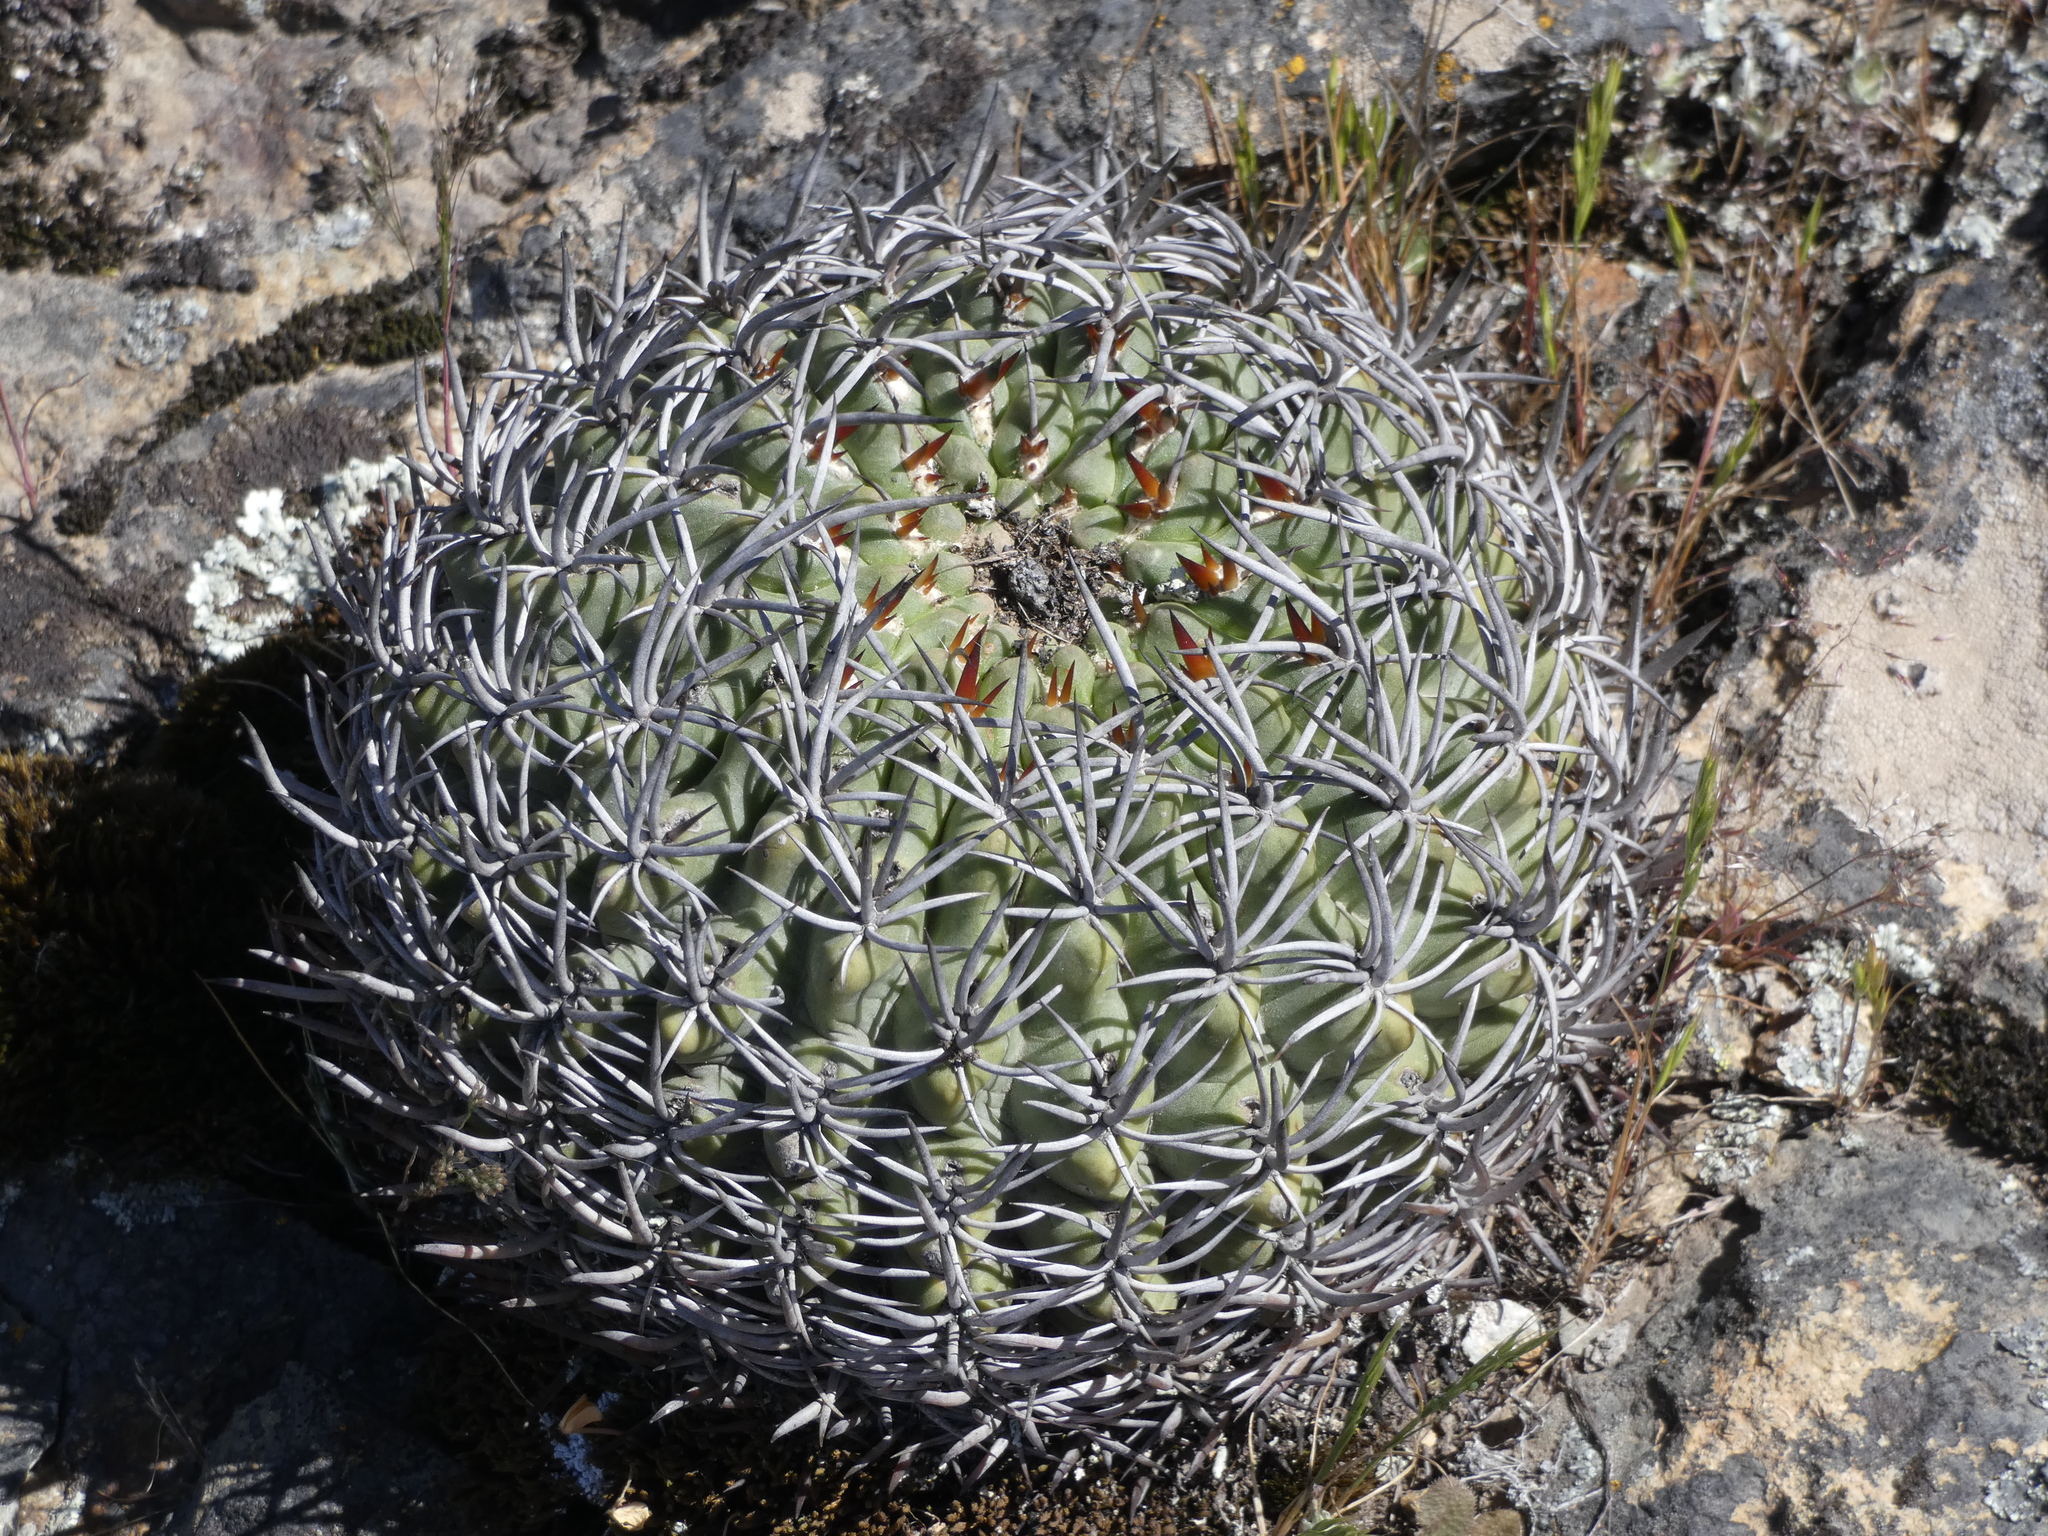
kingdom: Plantae
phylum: Tracheophyta
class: Magnoliopsida
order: Caryophyllales
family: Cactaceae
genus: Eriosyce
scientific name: Eriosyce marksiana
